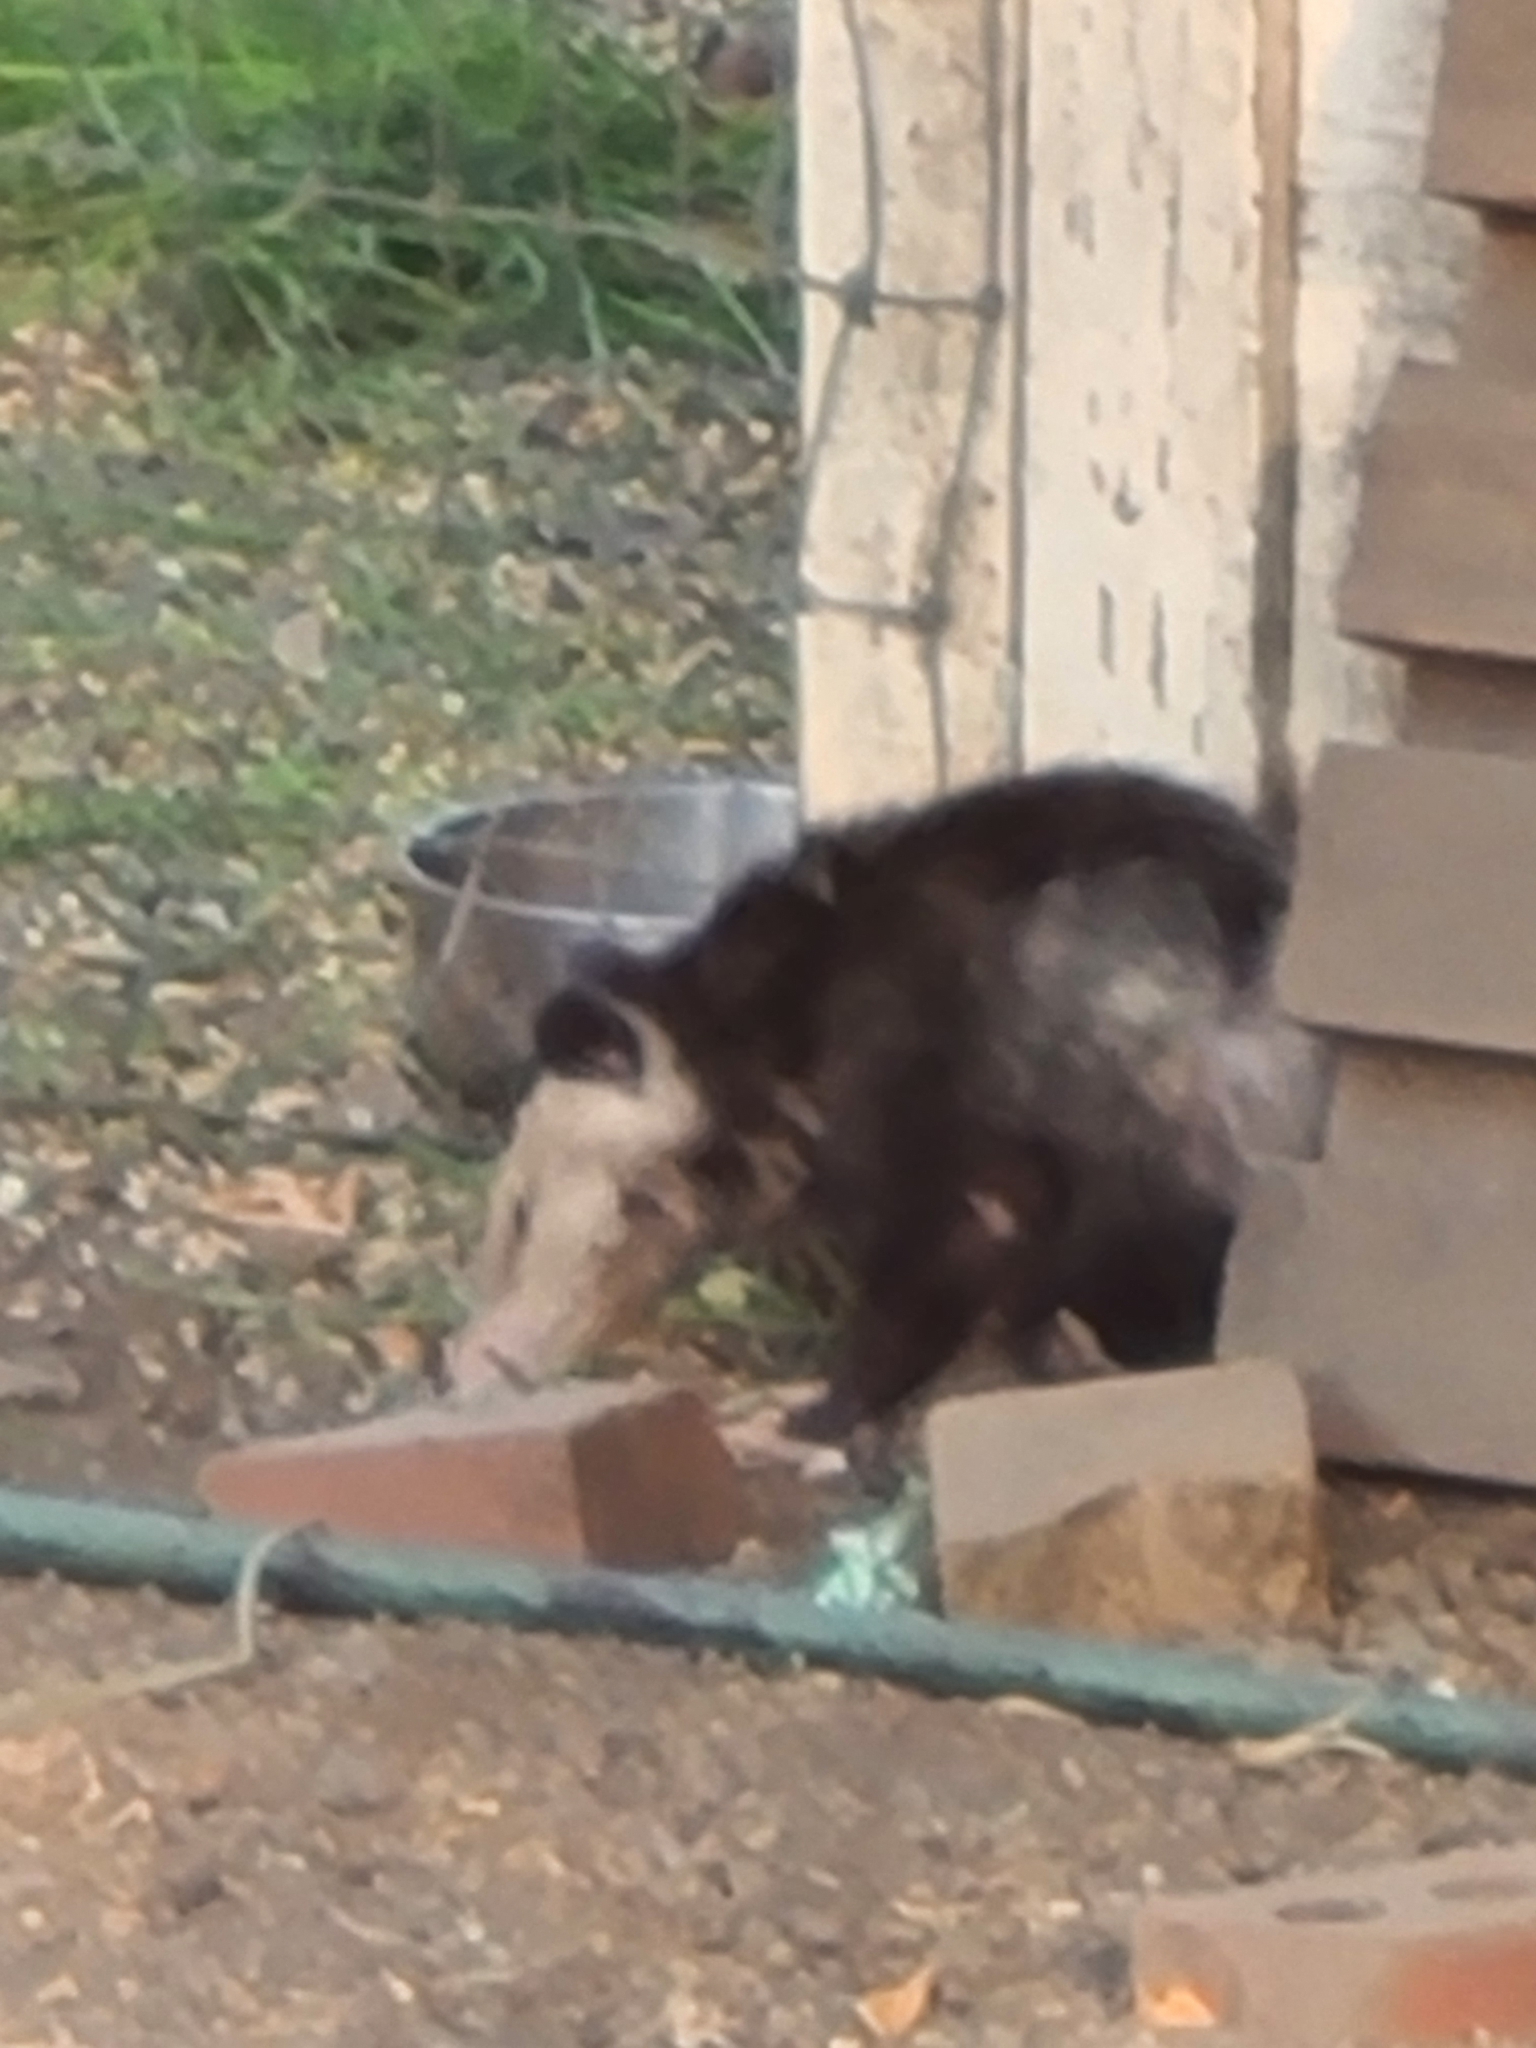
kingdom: Animalia
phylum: Chordata
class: Mammalia
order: Didelphimorphia
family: Didelphidae
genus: Didelphis
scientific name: Didelphis virginiana
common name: Virginia opossum
